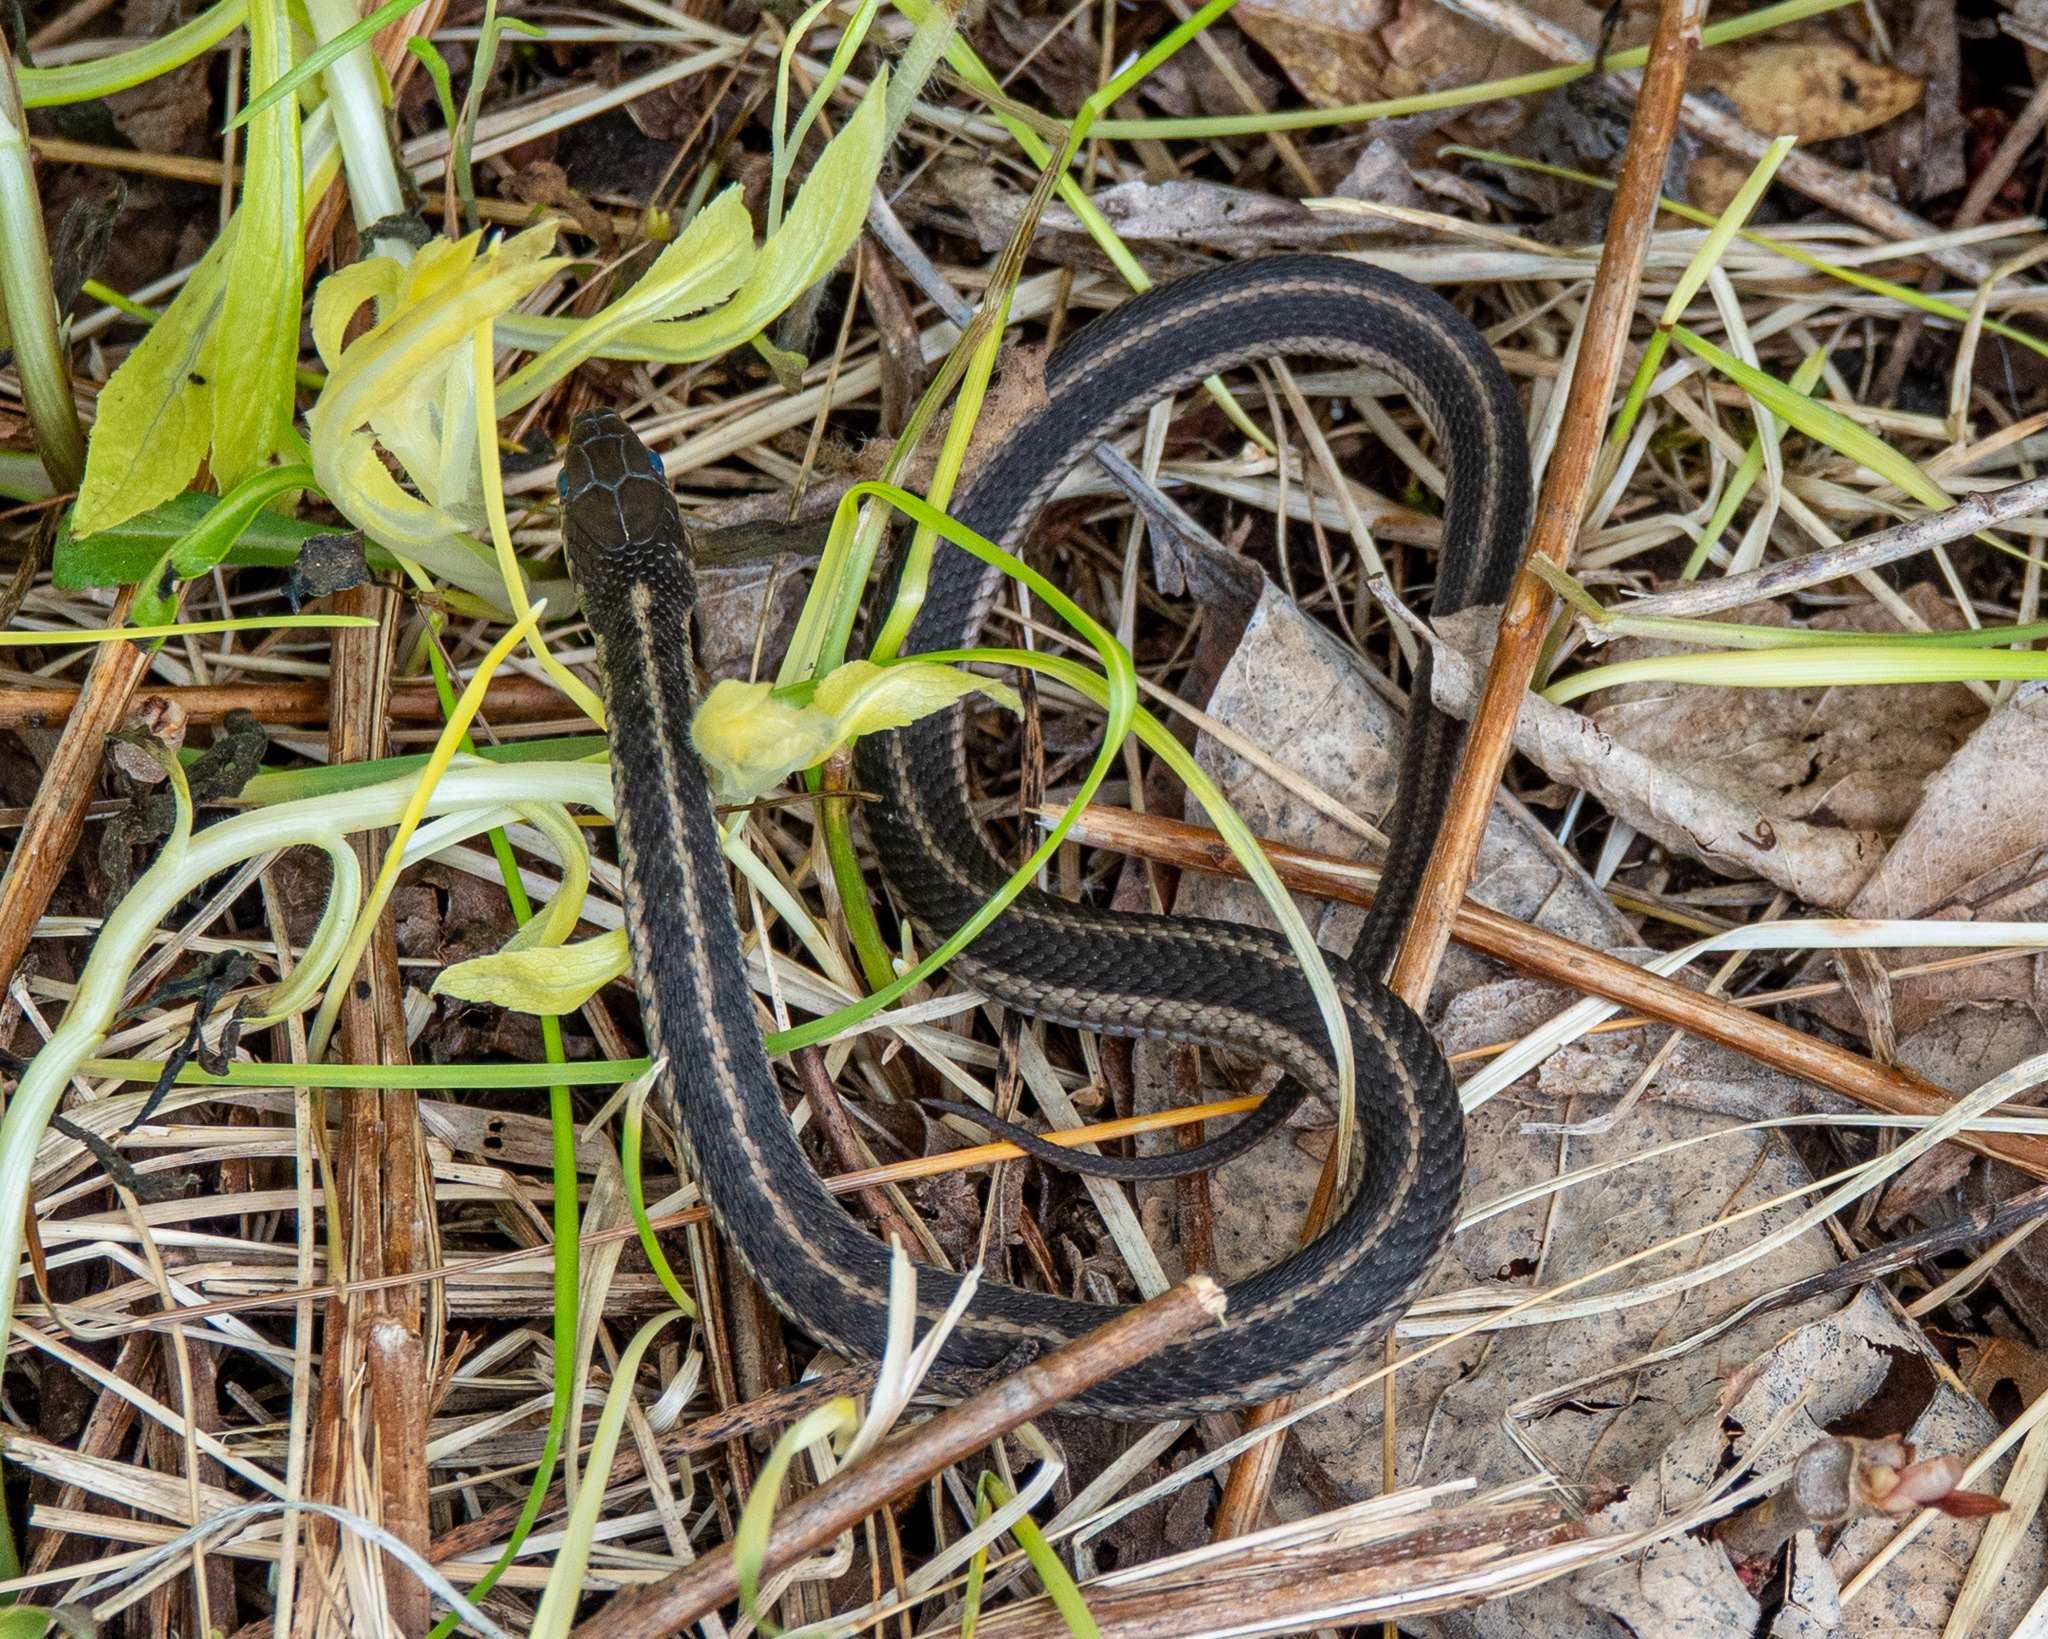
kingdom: Animalia
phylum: Chordata
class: Squamata
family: Colubridae
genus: Thamnophis
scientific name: Thamnophis sirtalis
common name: Common garter snake
